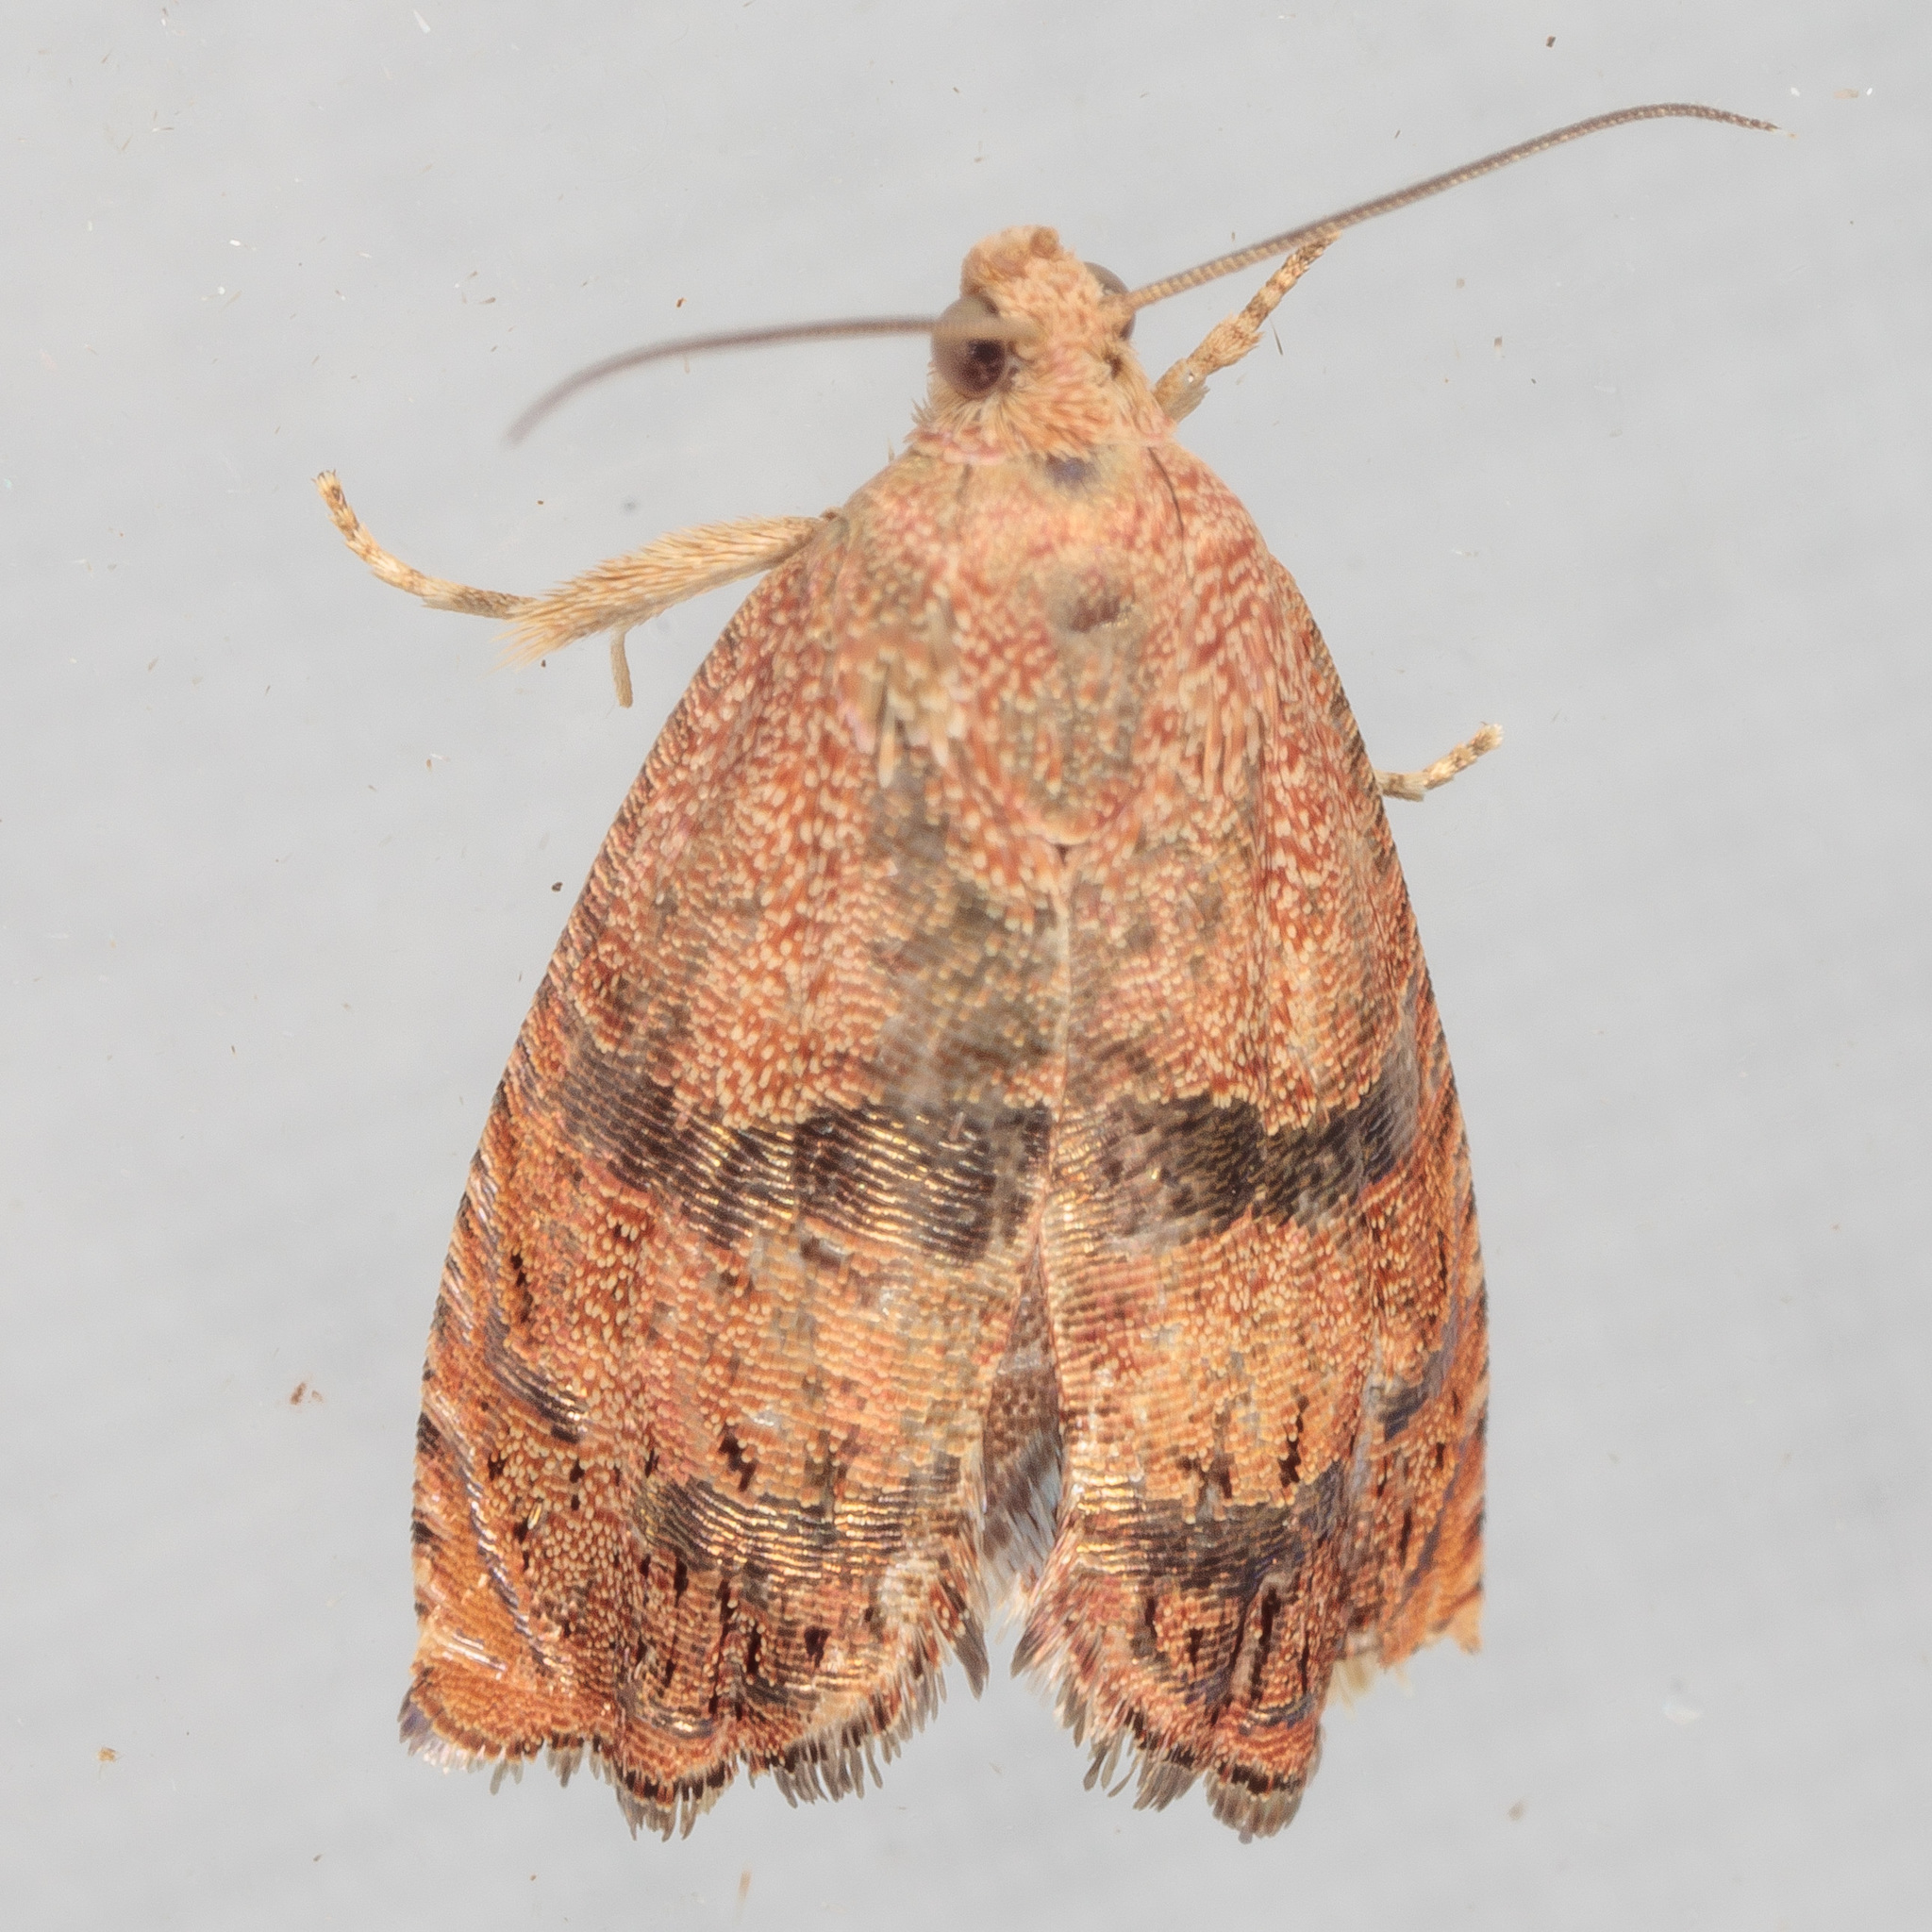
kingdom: Animalia
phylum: Arthropoda
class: Insecta
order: Lepidoptera
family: Tortricidae
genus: Cydia
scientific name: Cydia latiferreana
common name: Filbertworm moth
